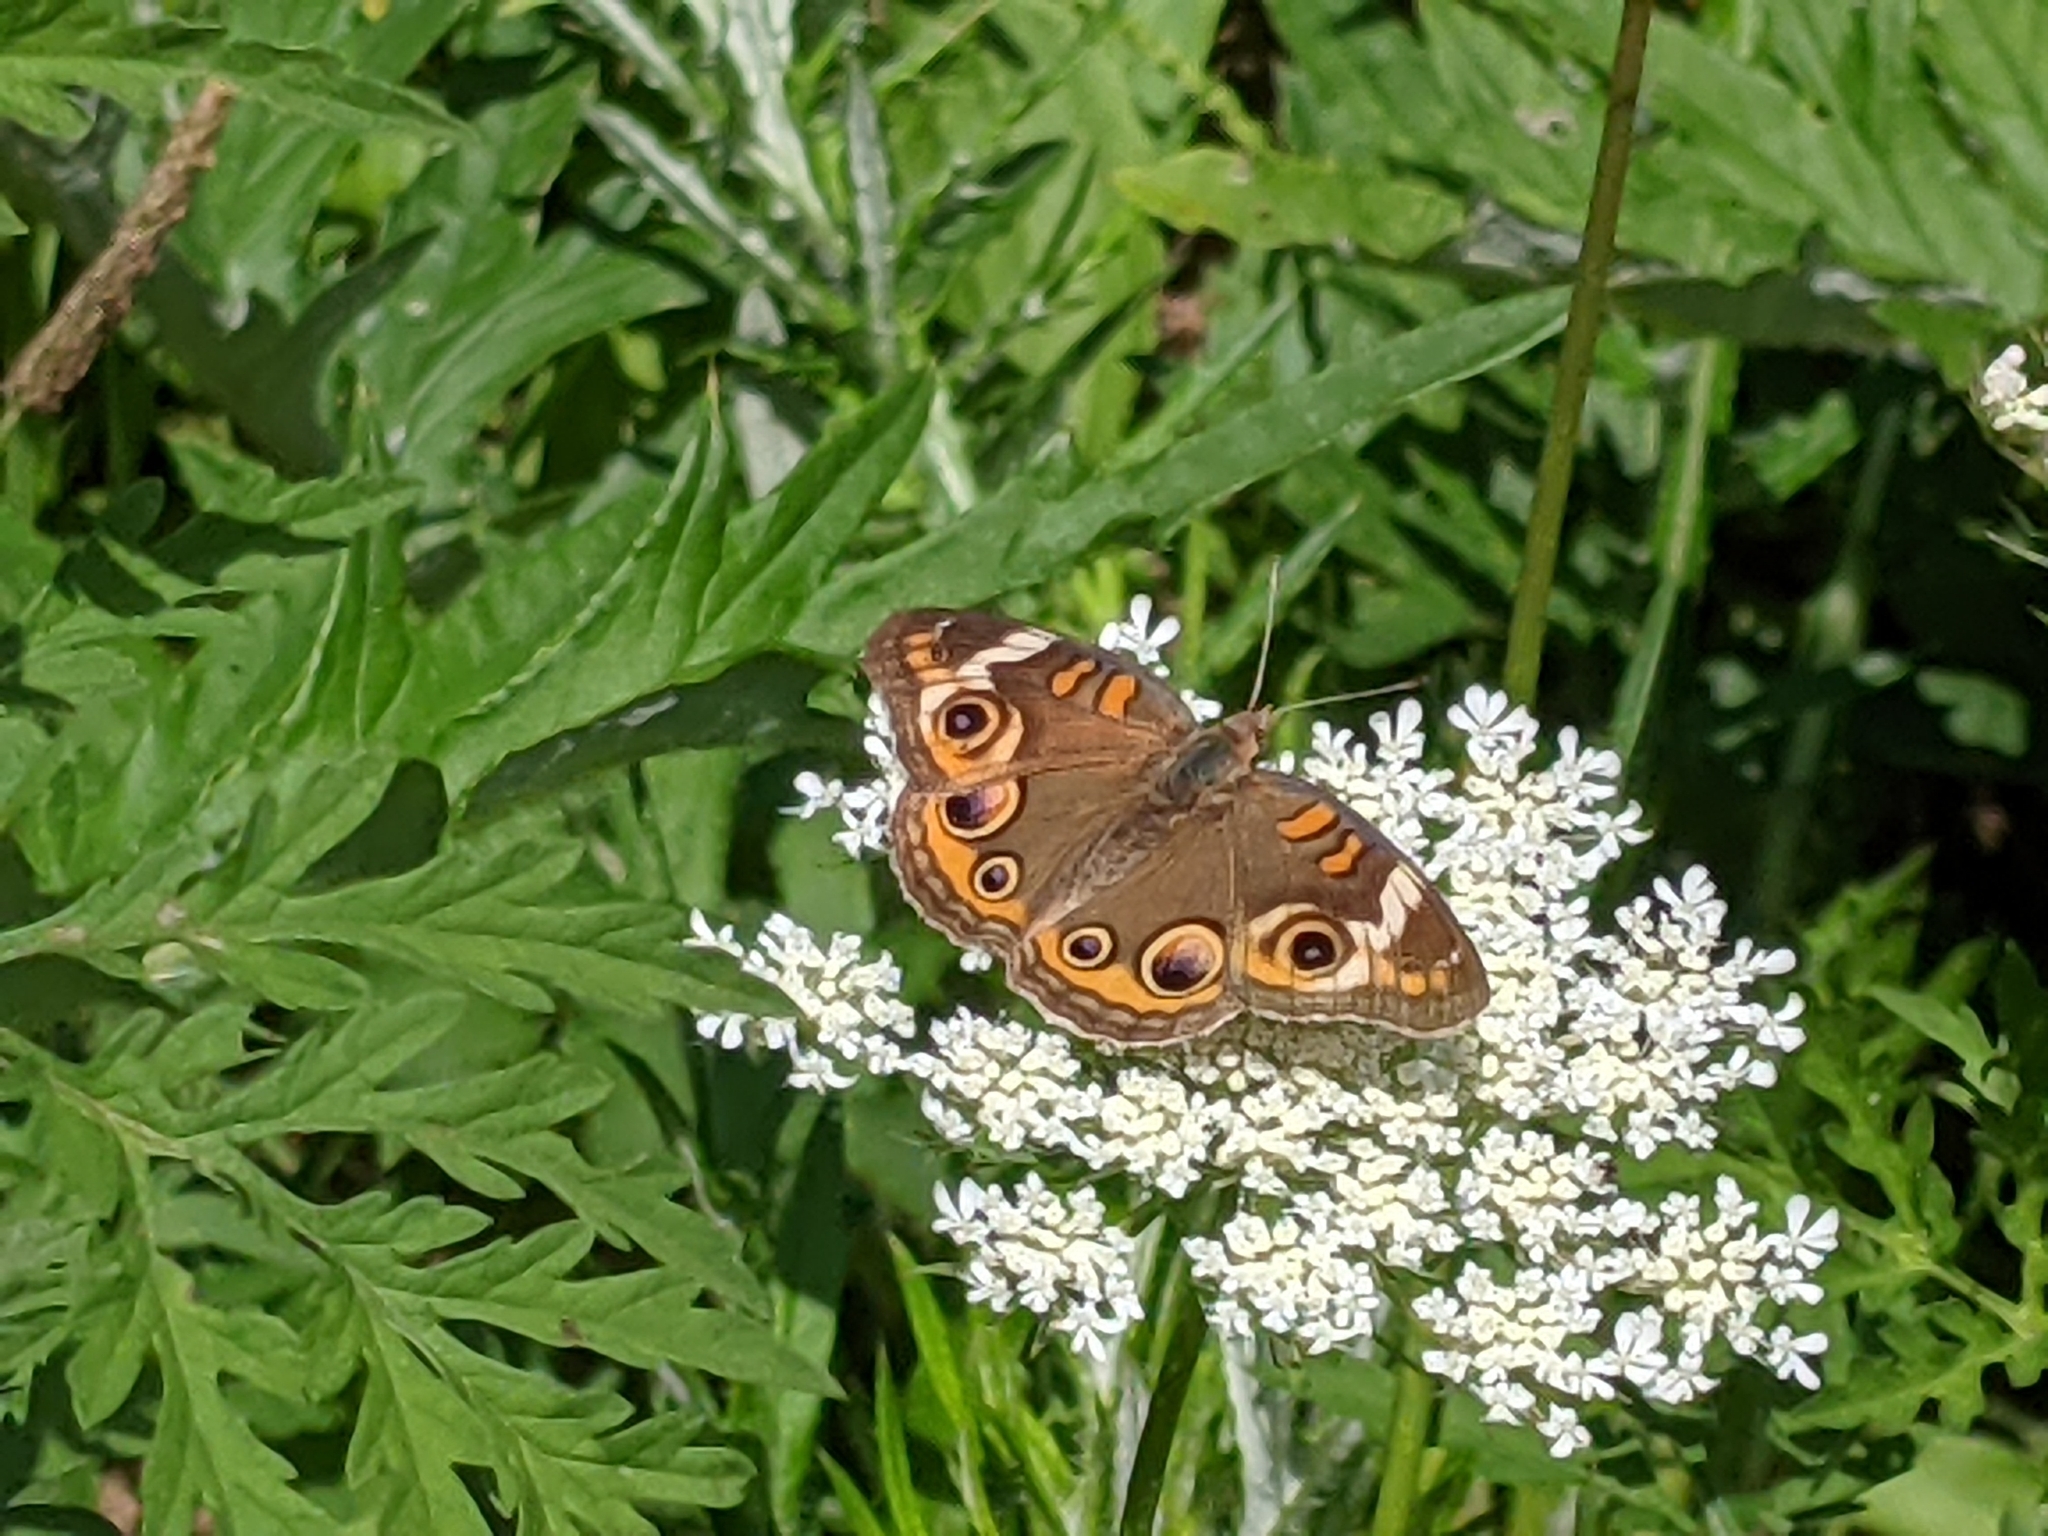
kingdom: Animalia
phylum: Arthropoda
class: Insecta
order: Lepidoptera
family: Nymphalidae
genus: Junonia
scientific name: Junonia coenia
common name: Common buckeye
